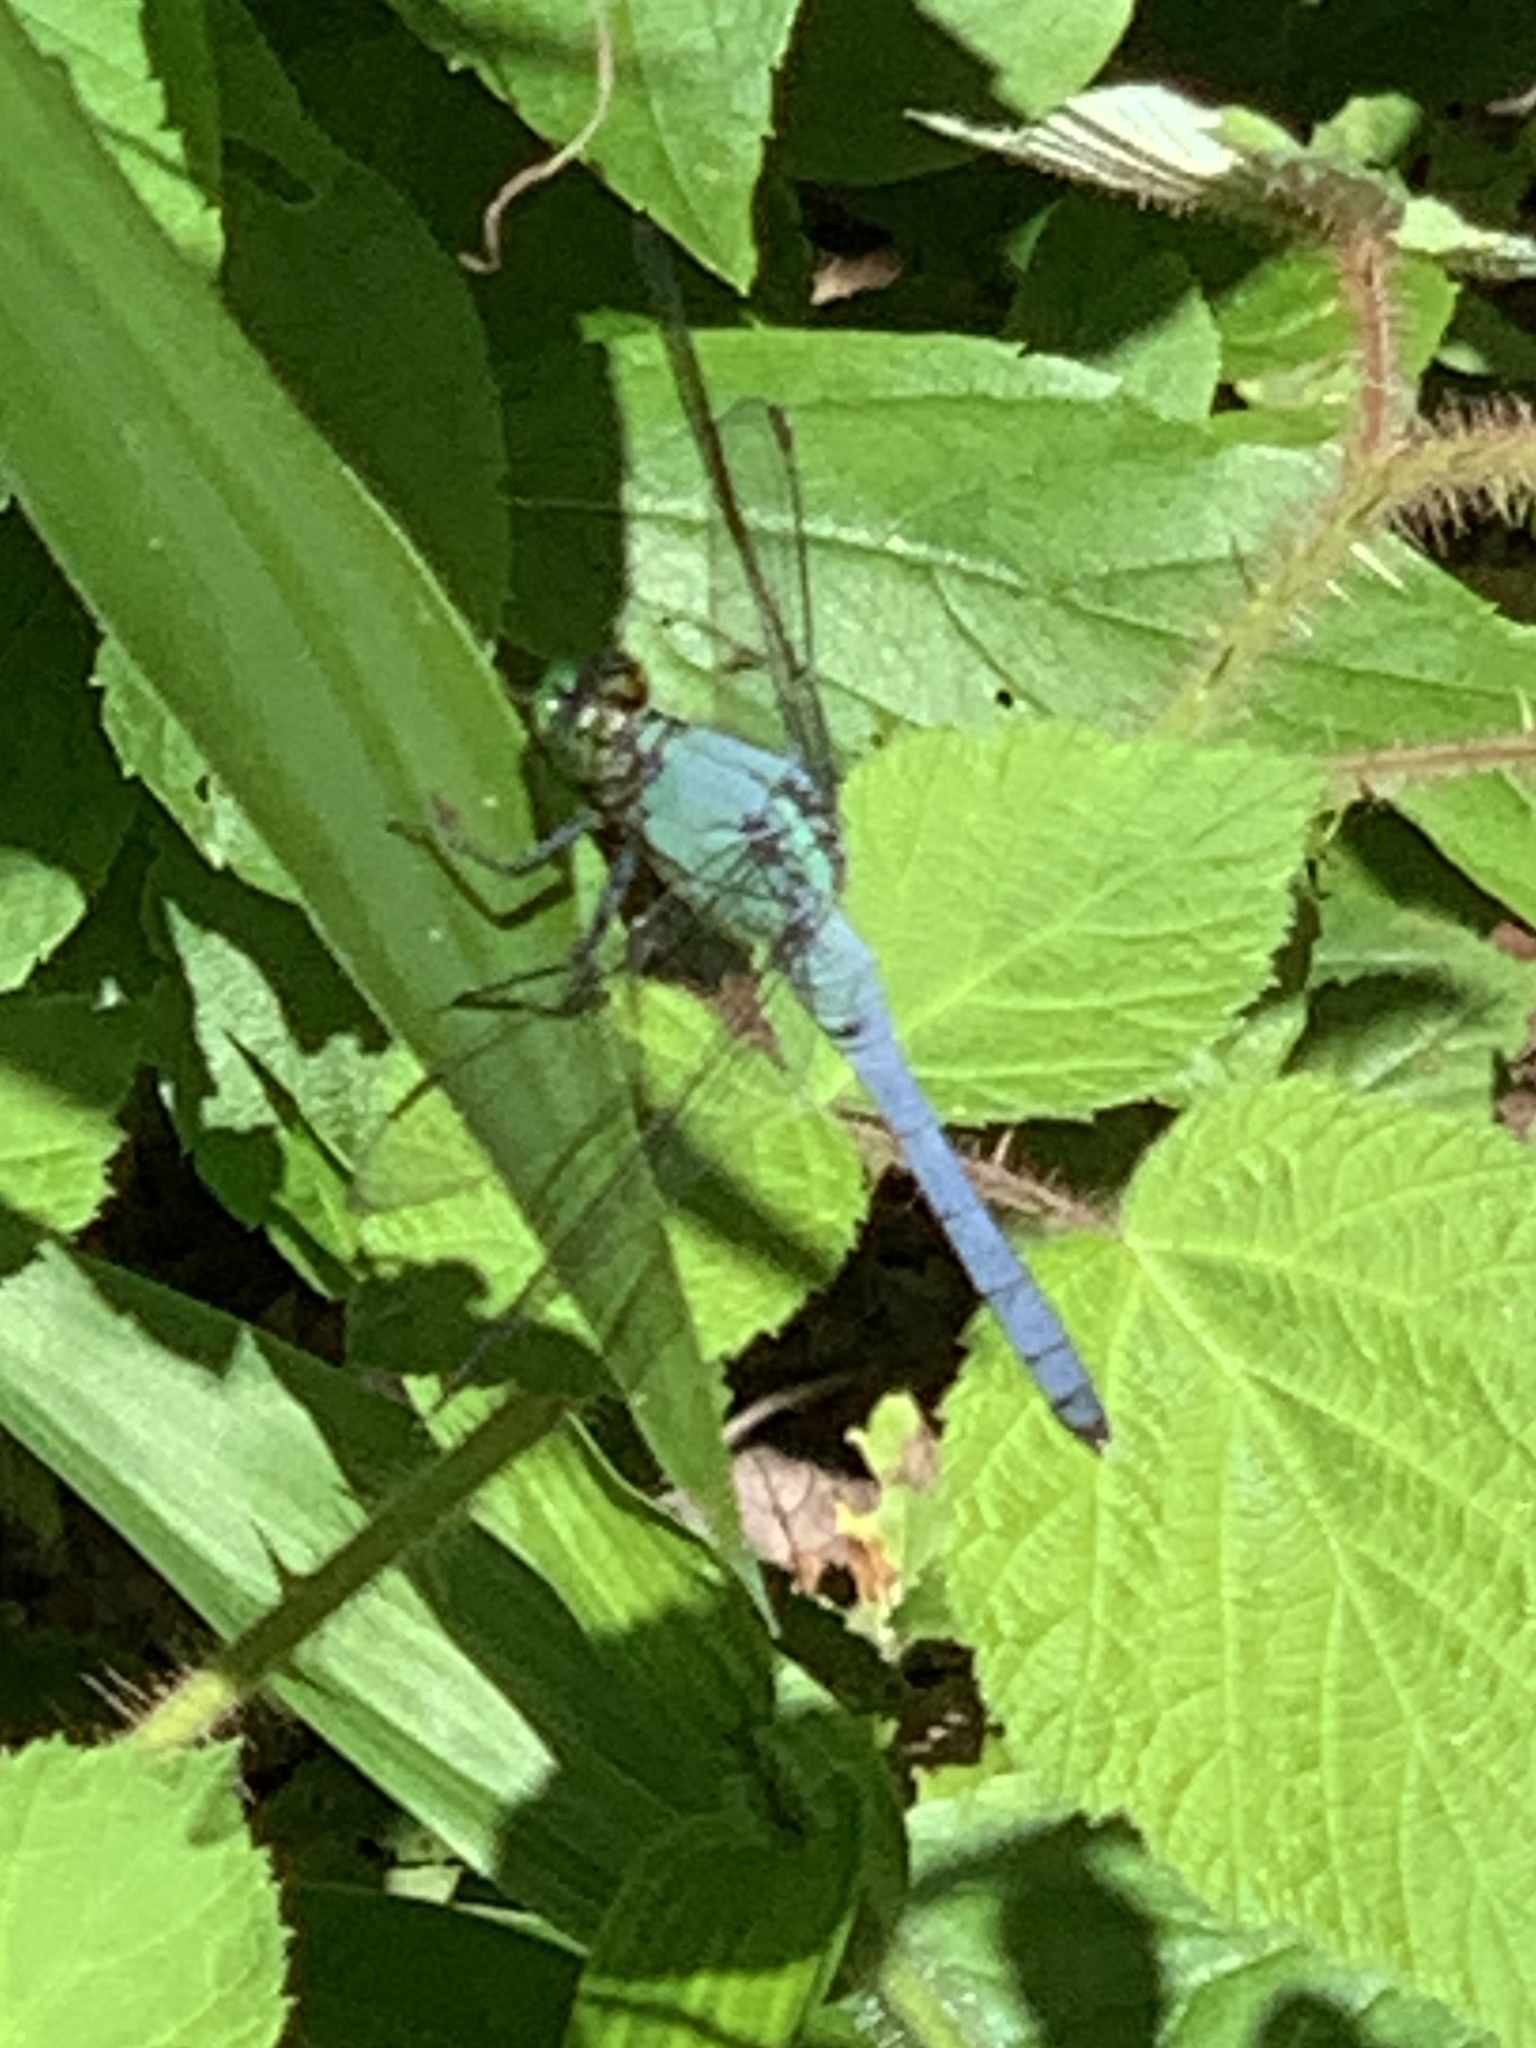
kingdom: Animalia
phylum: Arthropoda
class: Insecta
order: Odonata
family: Libellulidae
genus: Erythemis
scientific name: Erythemis simplicicollis
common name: Eastern pondhawk
